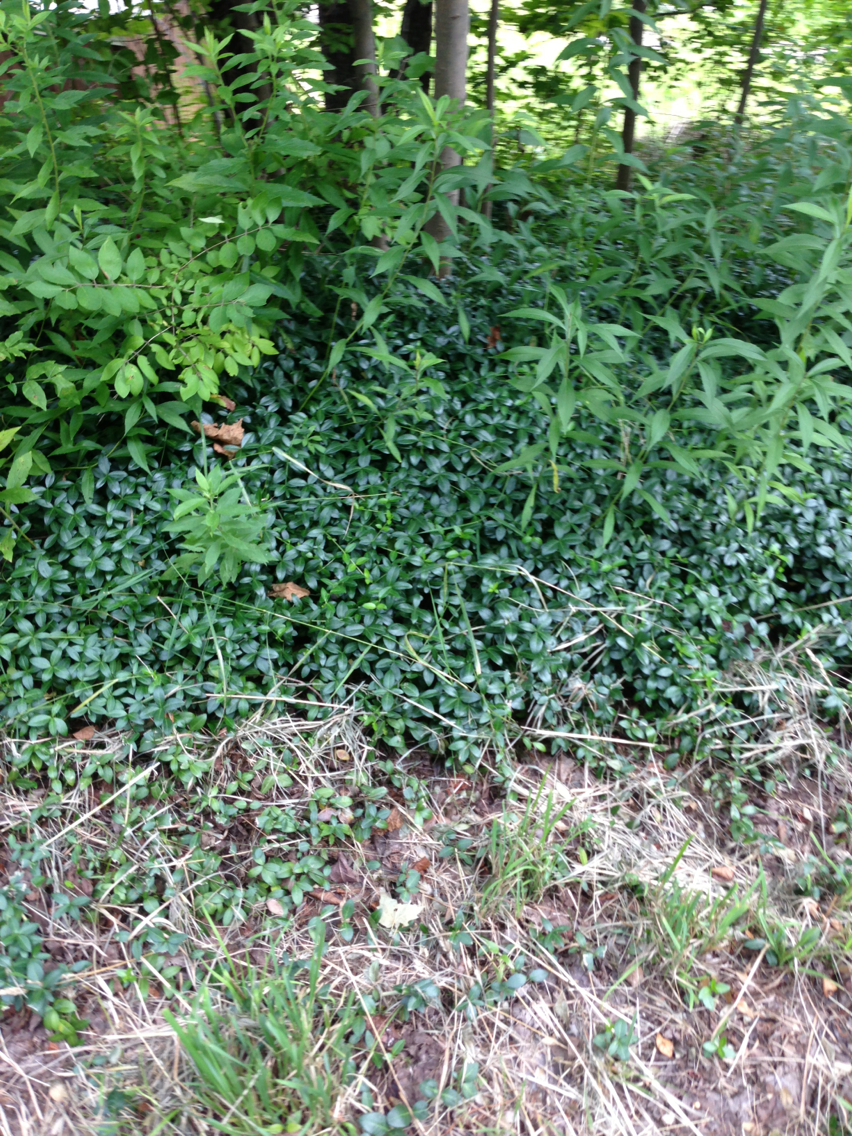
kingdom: Plantae
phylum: Tracheophyta
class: Magnoliopsida
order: Gentianales
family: Apocynaceae
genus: Vinca
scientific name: Vinca minor
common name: Lesser periwinkle
